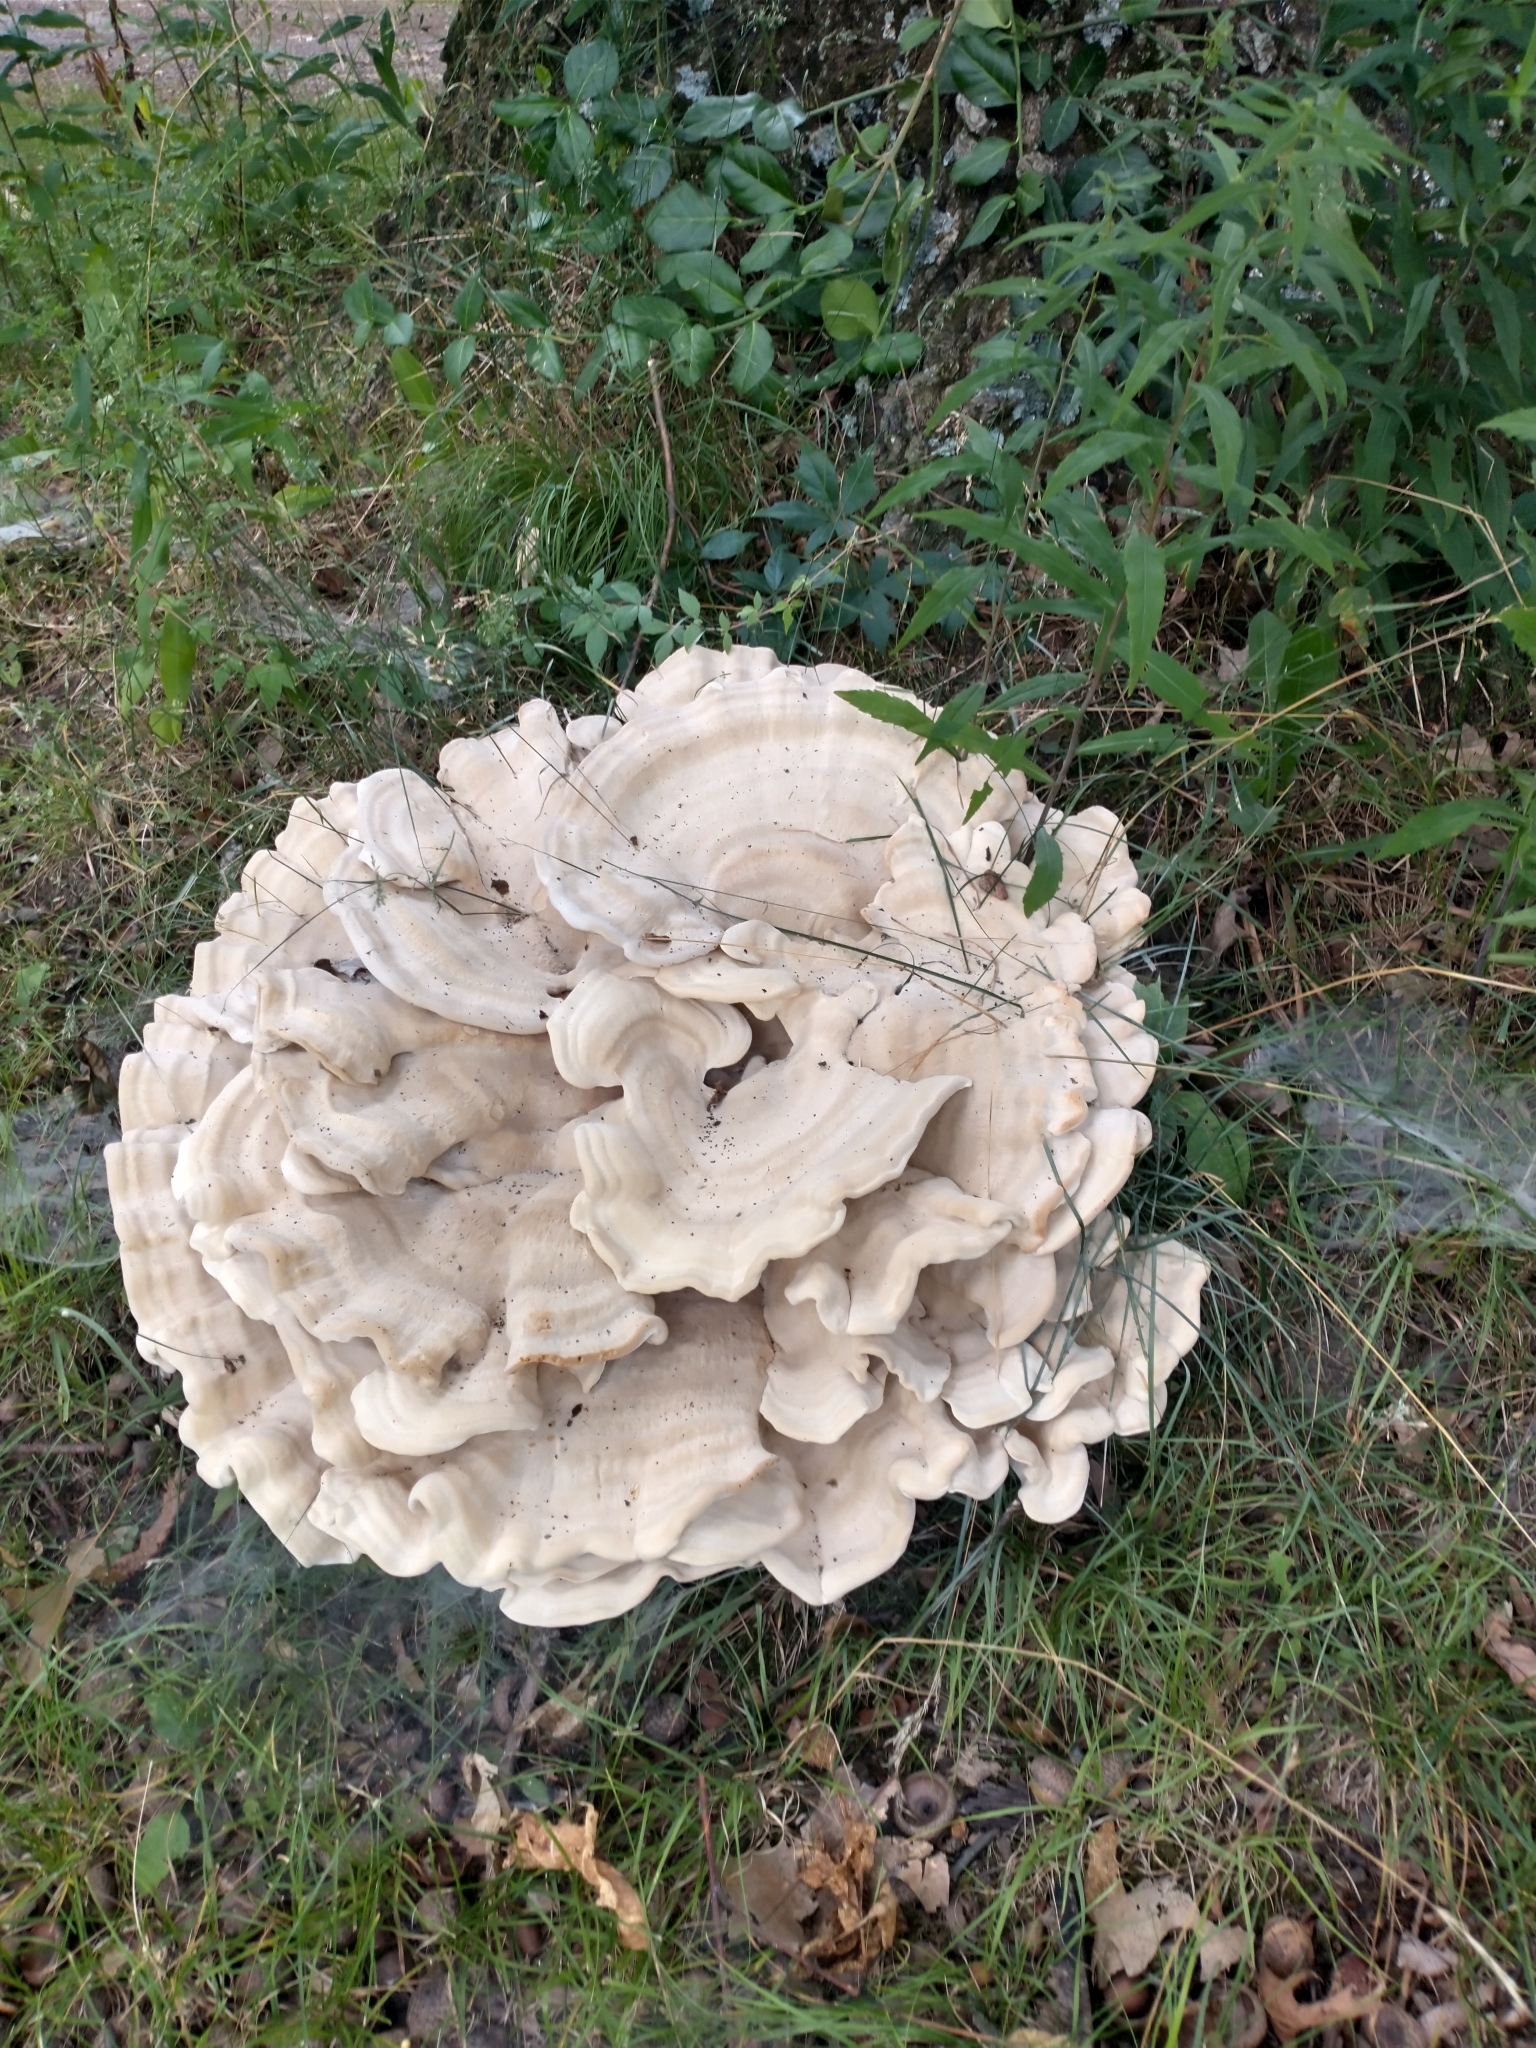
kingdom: Fungi
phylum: Basidiomycota
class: Agaricomycetes
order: Russulales
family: Bondarzewiaceae
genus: Bondarzewia
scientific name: Bondarzewia berkeleyi
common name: Berkeley's polypore
